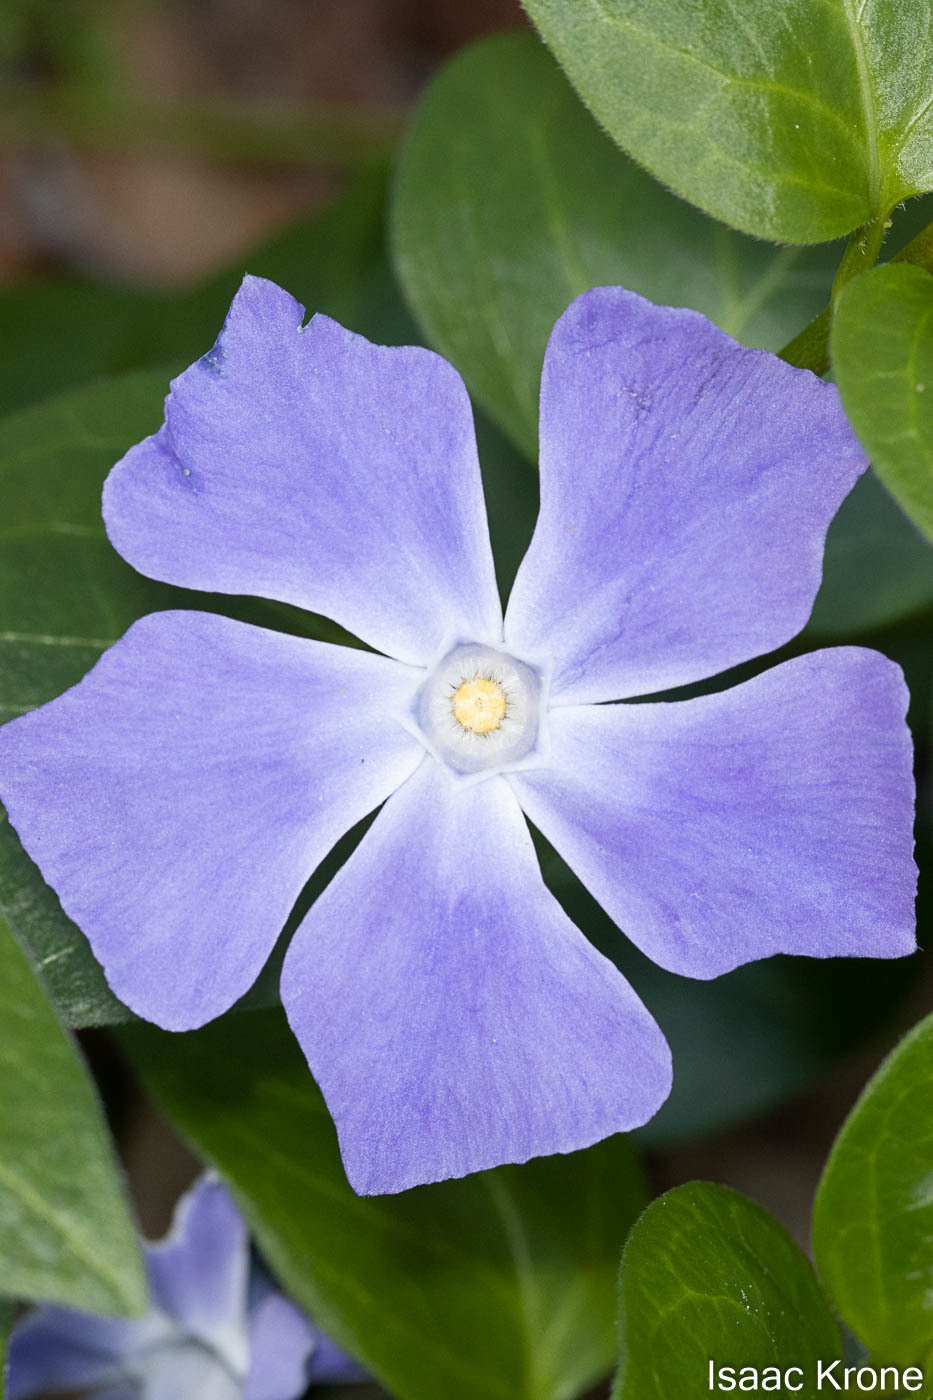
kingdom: Plantae
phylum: Tracheophyta
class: Magnoliopsida
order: Gentianales
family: Apocynaceae
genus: Vinca
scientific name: Vinca major
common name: Greater periwinkle
